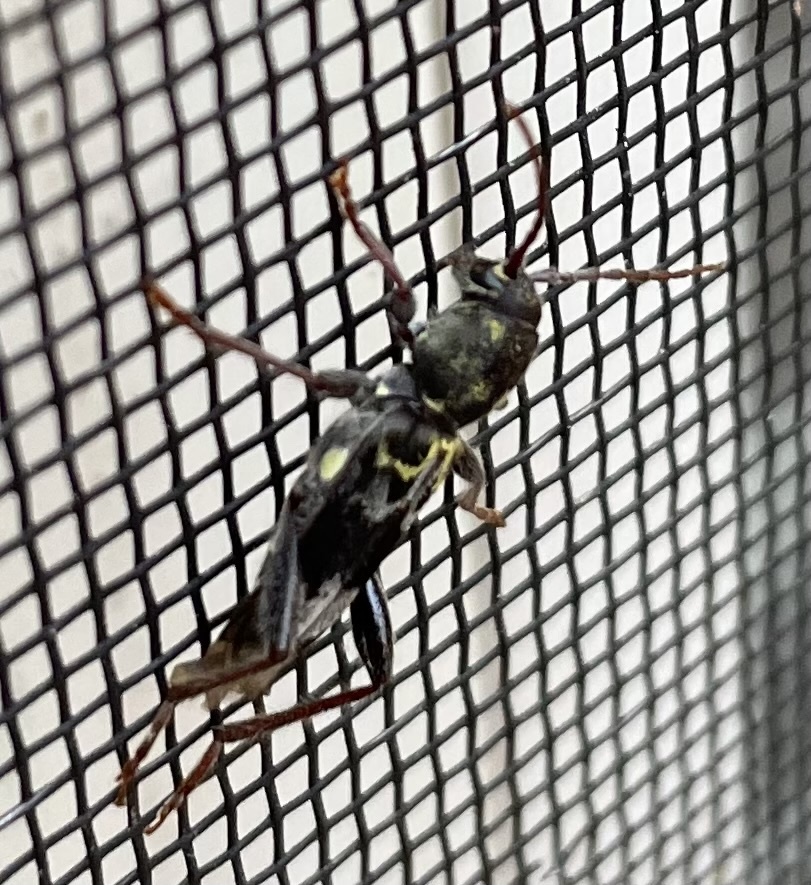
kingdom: Animalia
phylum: Arthropoda
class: Insecta
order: Coleoptera
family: Cerambycidae
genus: Xylotrechus
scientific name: Xylotrechus colonus
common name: Long-horned beetle
